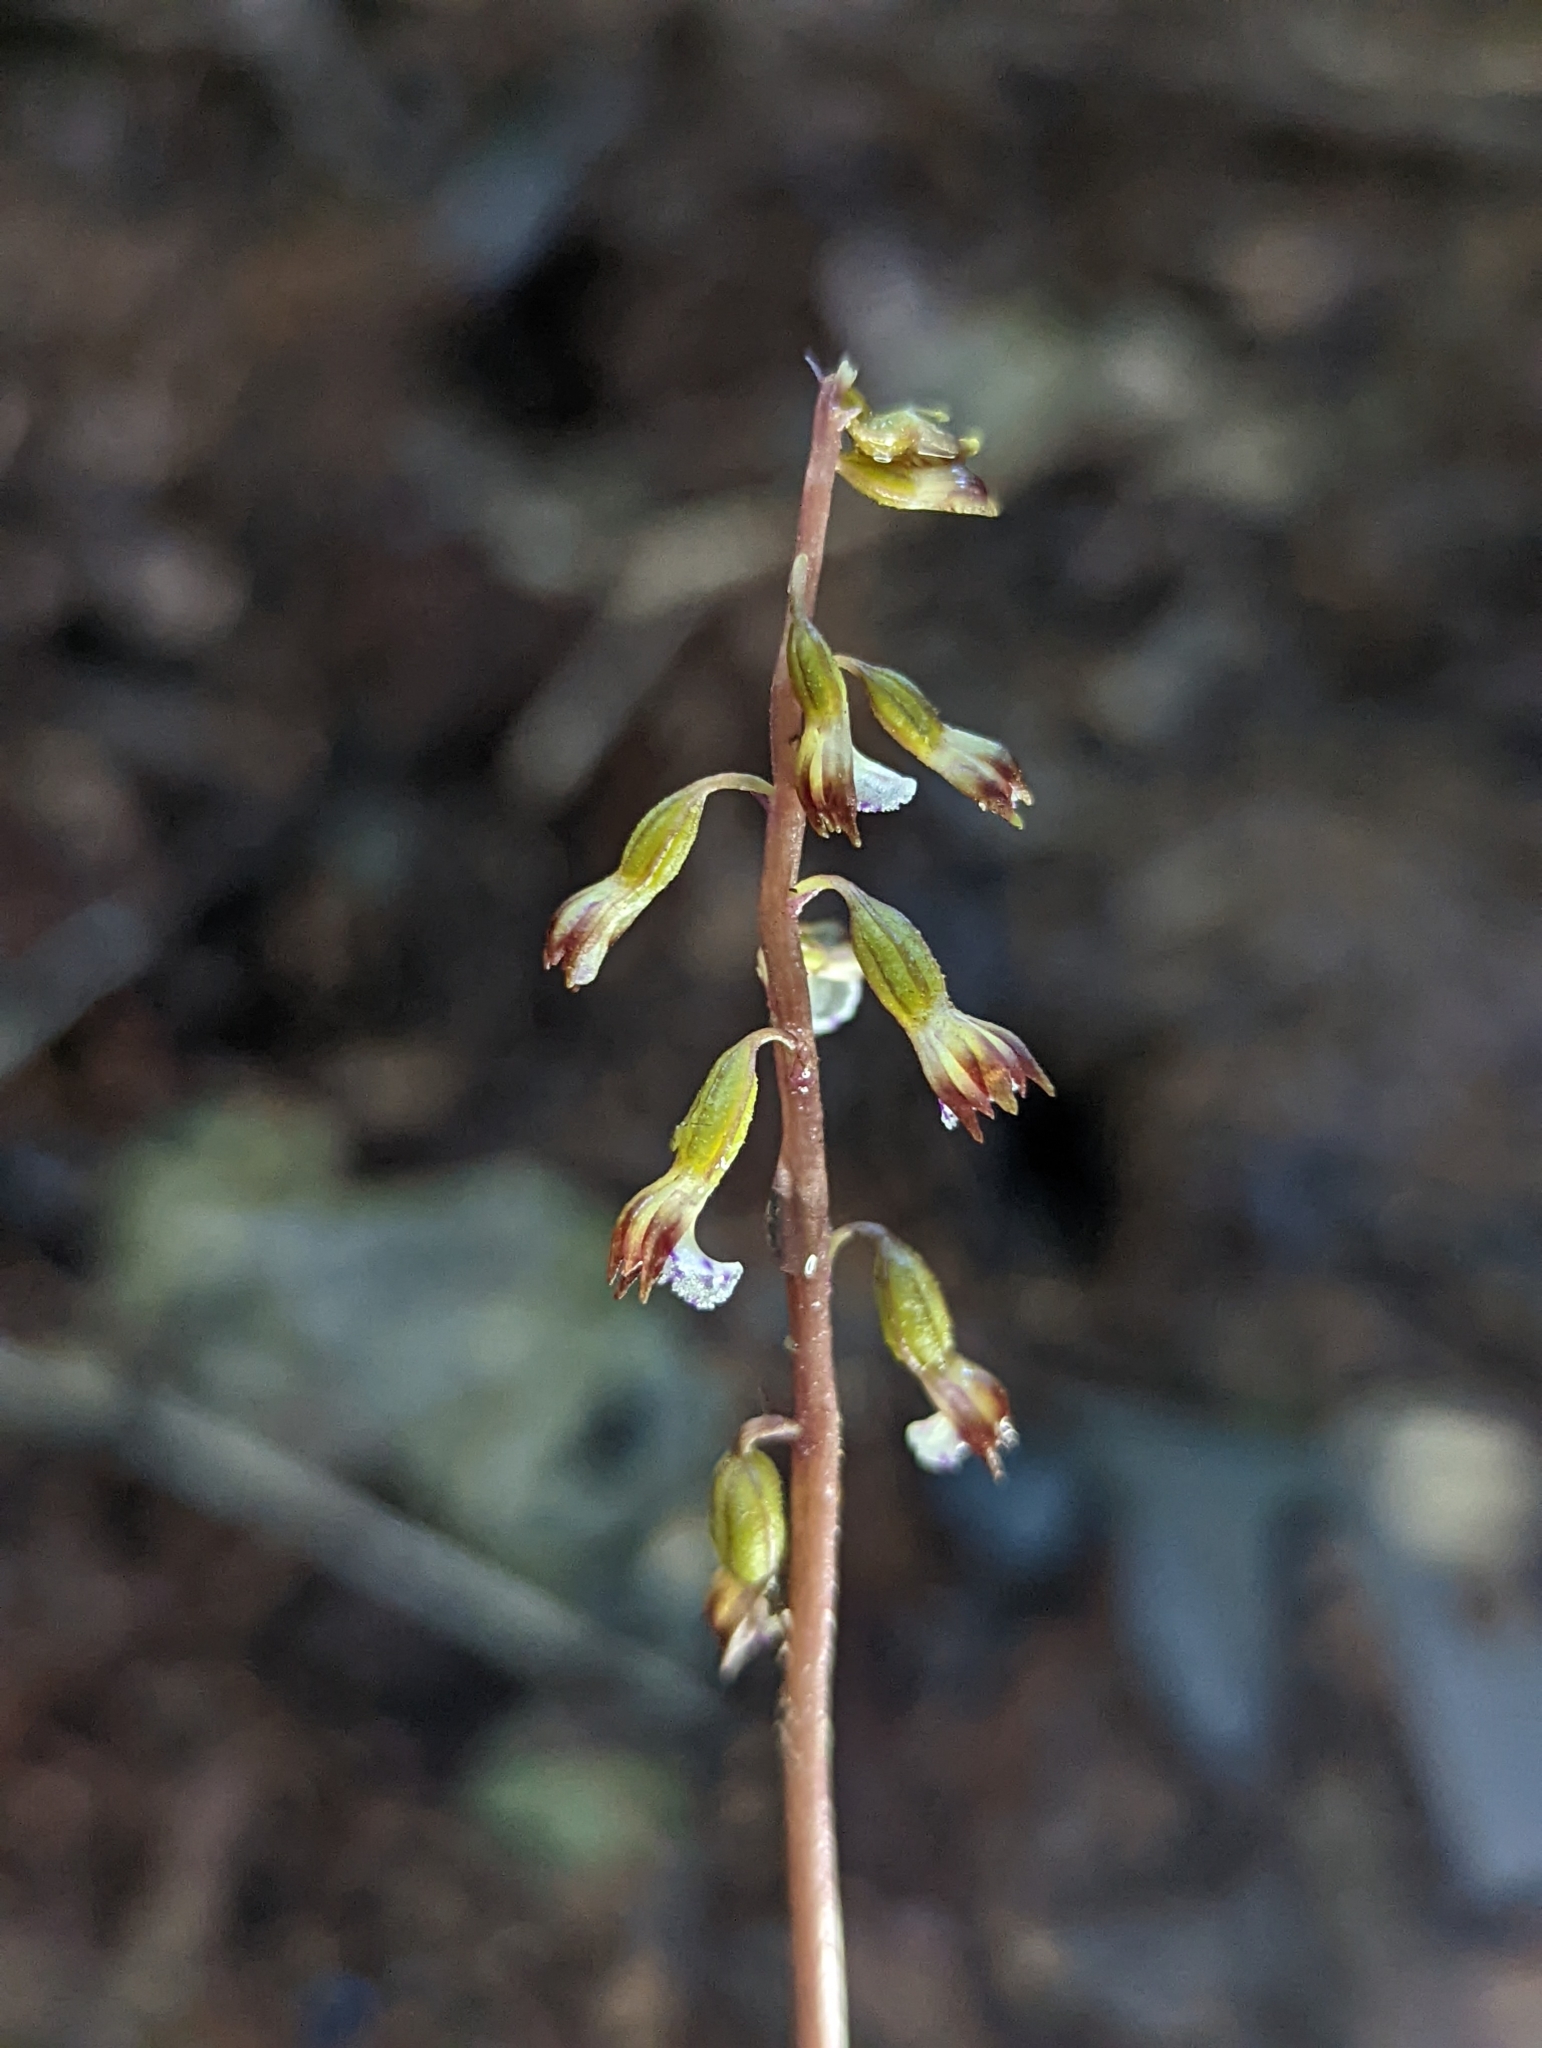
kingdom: Plantae
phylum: Tracheophyta
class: Liliopsida
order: Asparagales
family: Orchidaceae
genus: Corallorhiza
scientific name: Corallorhiza odontorhiza
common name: Autumn coralroot
